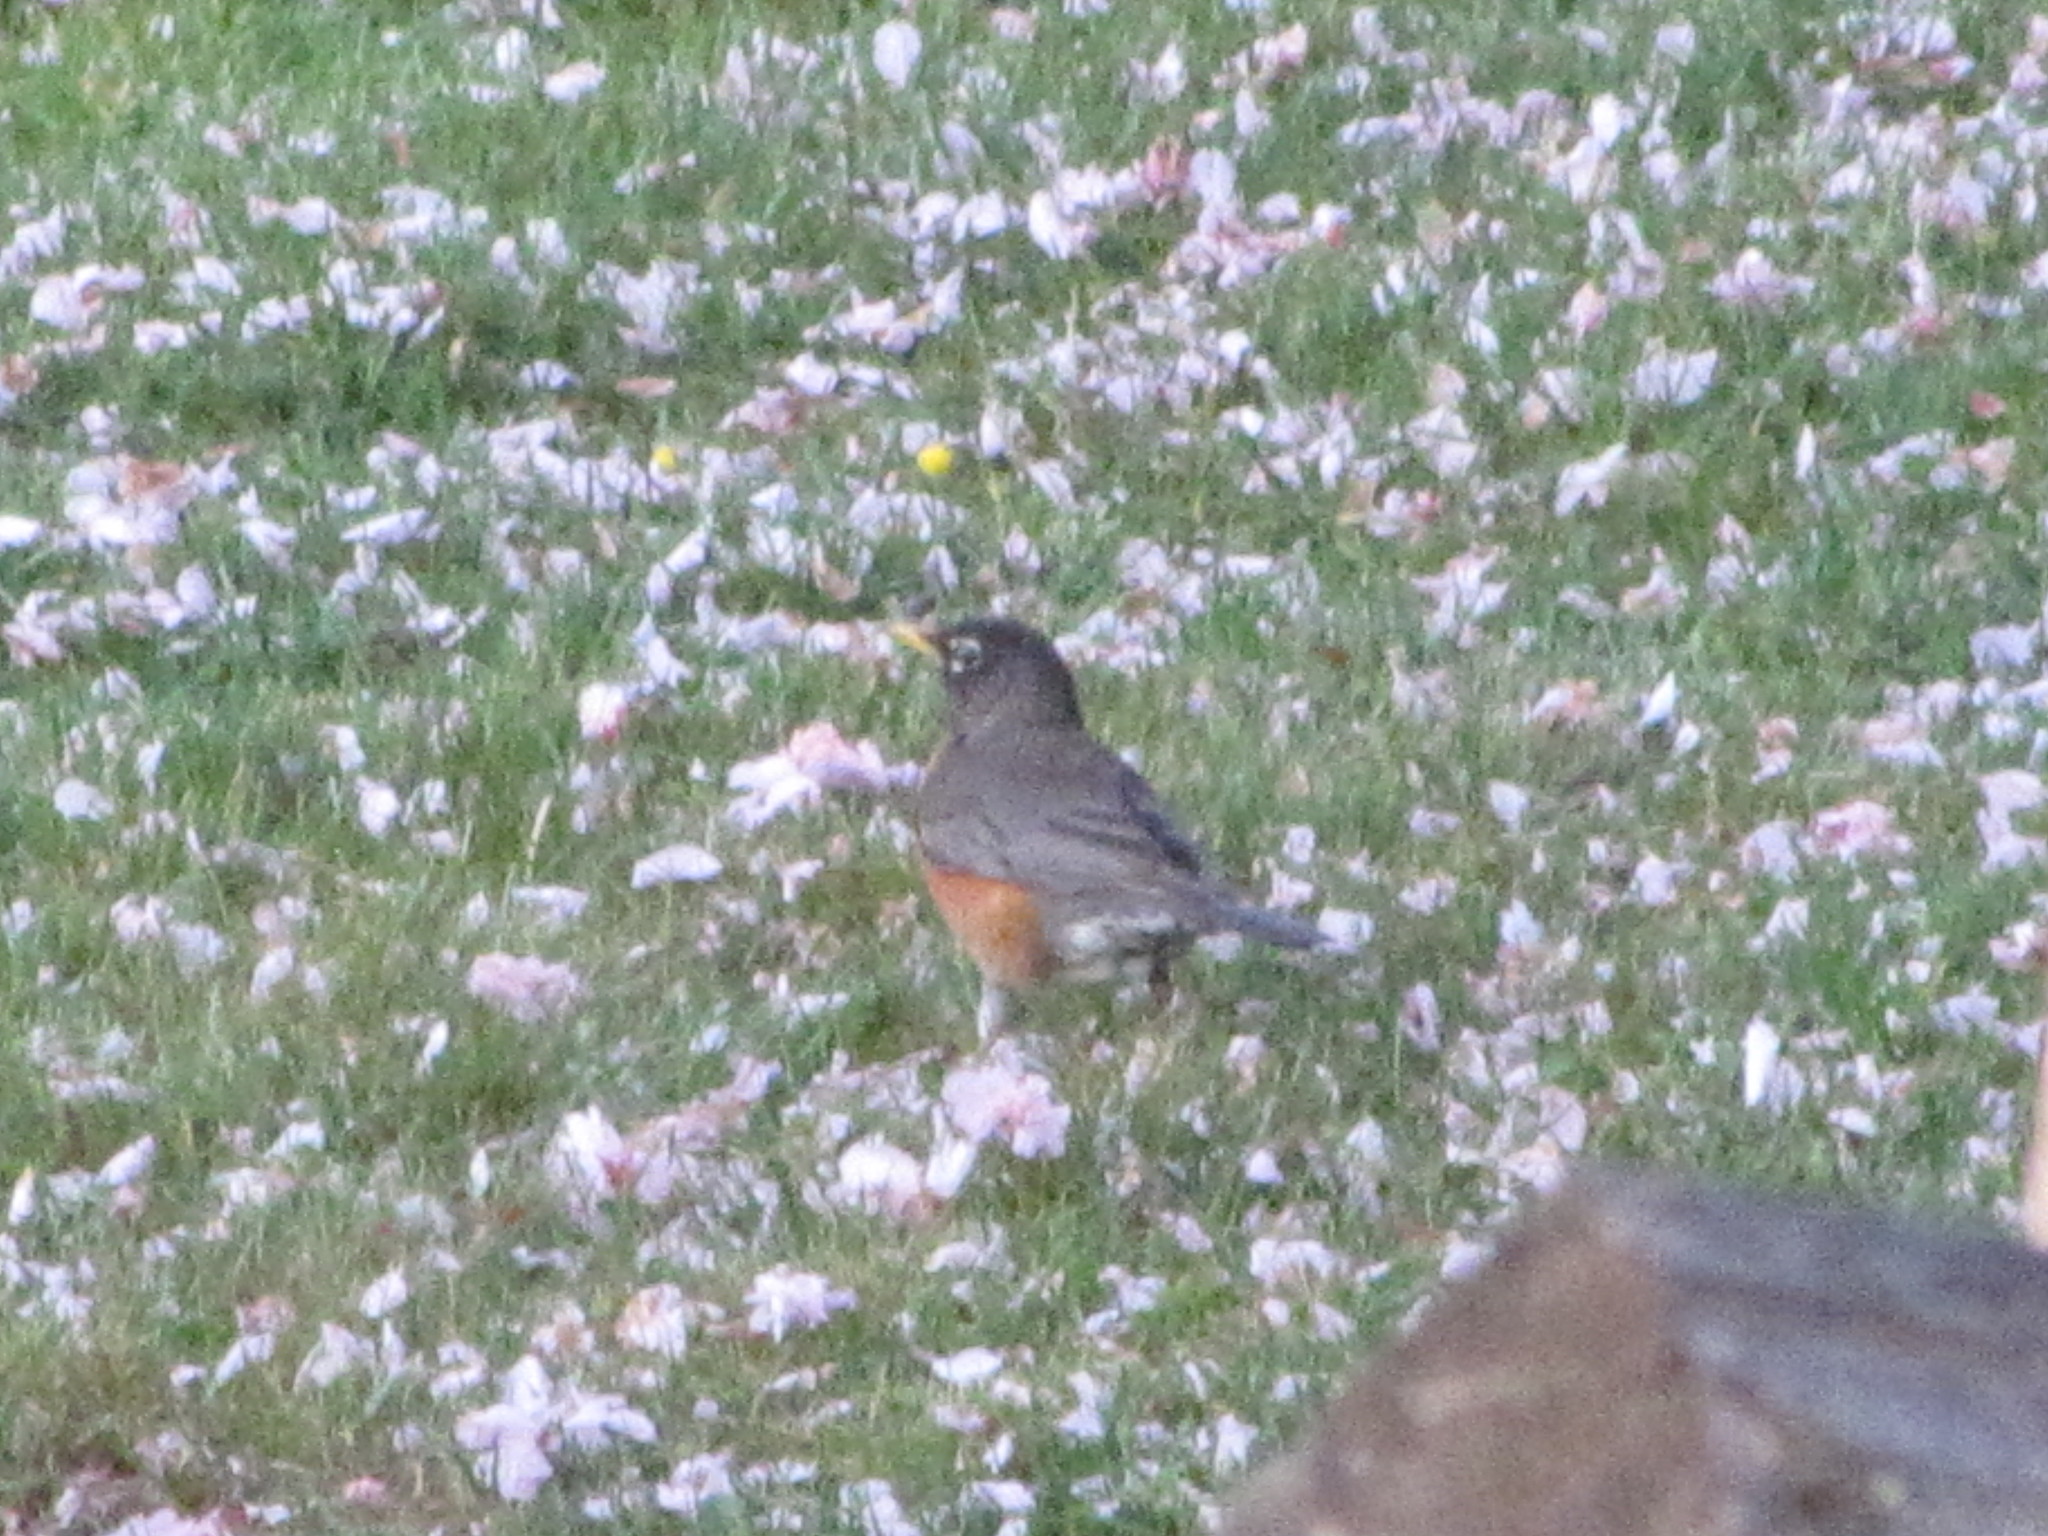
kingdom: Animalia
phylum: Chordata
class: Aves
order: Passeriformes
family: Turdidae
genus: Turdus
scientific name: Turdus migratorius
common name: American robin
